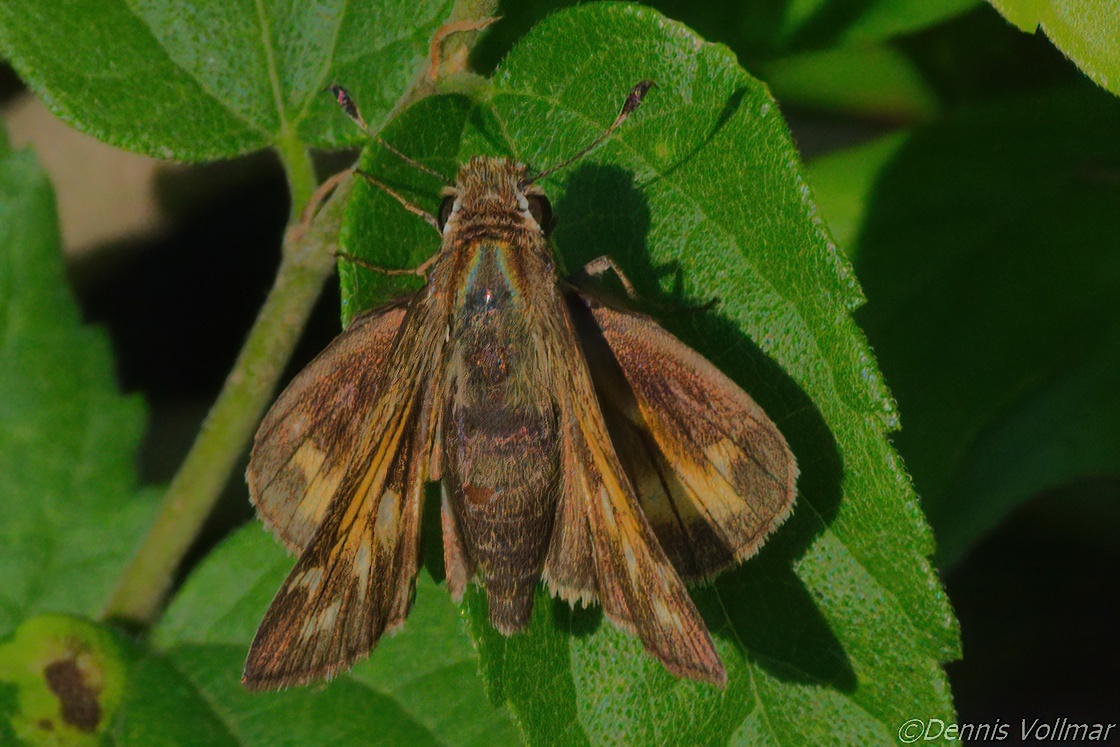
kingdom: Animalia
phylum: Arthropoda
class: Insecta
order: Lepidoptera
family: Hesperiidae
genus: Atalopedes
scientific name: Atalopedes
